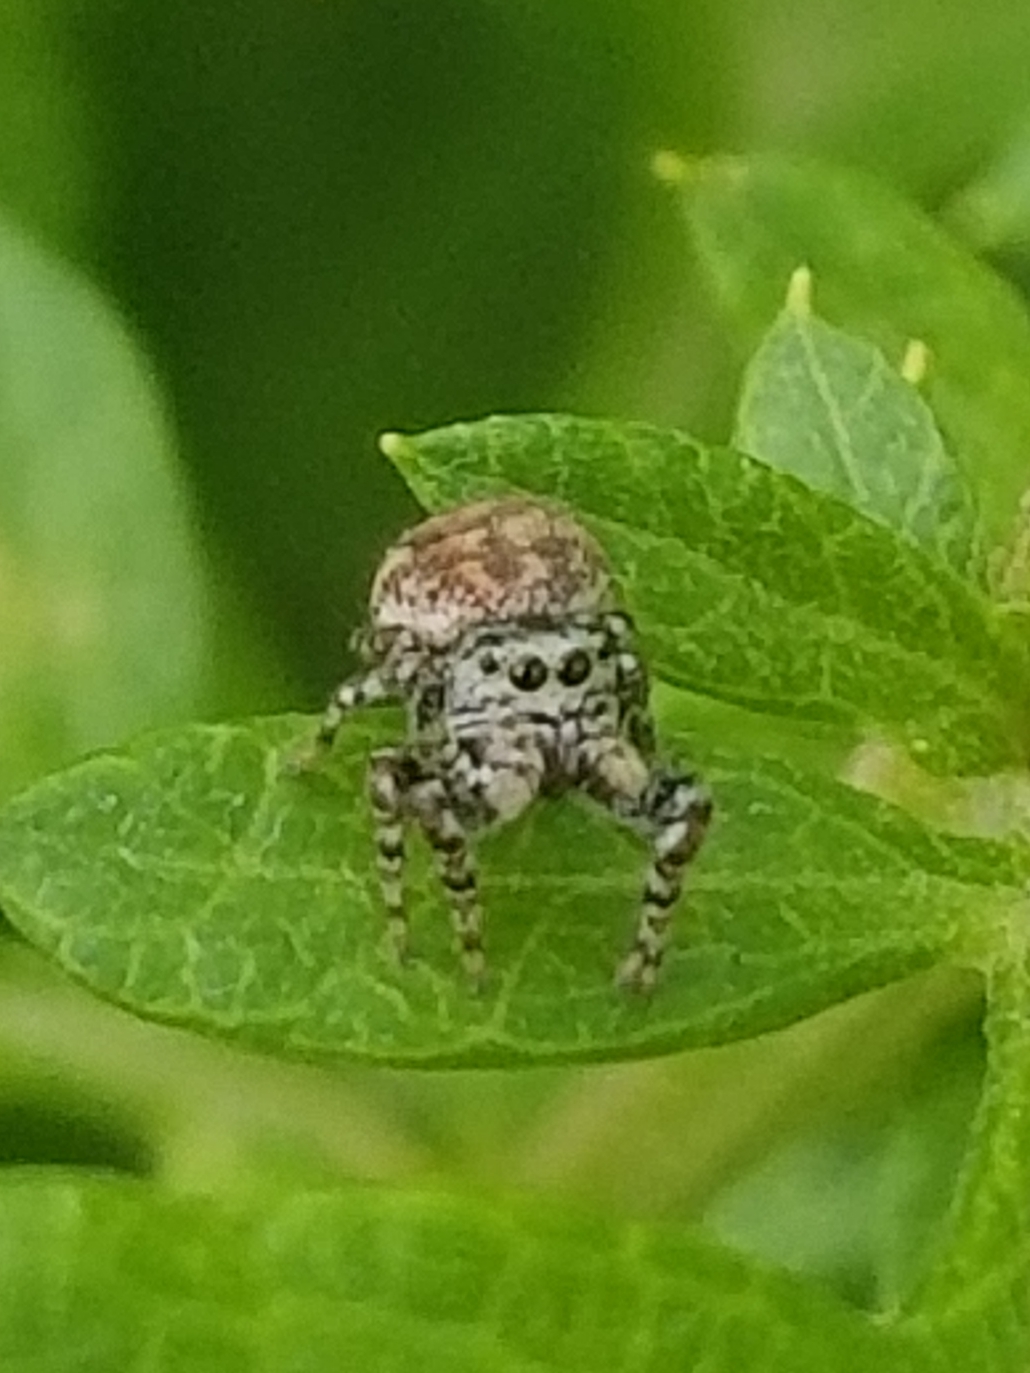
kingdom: Animalia
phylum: Arthropoda
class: Arachnida
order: Araneae
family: Salticidae
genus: Pelegrina
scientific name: Pelegrina galathea
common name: Jumping spiders
